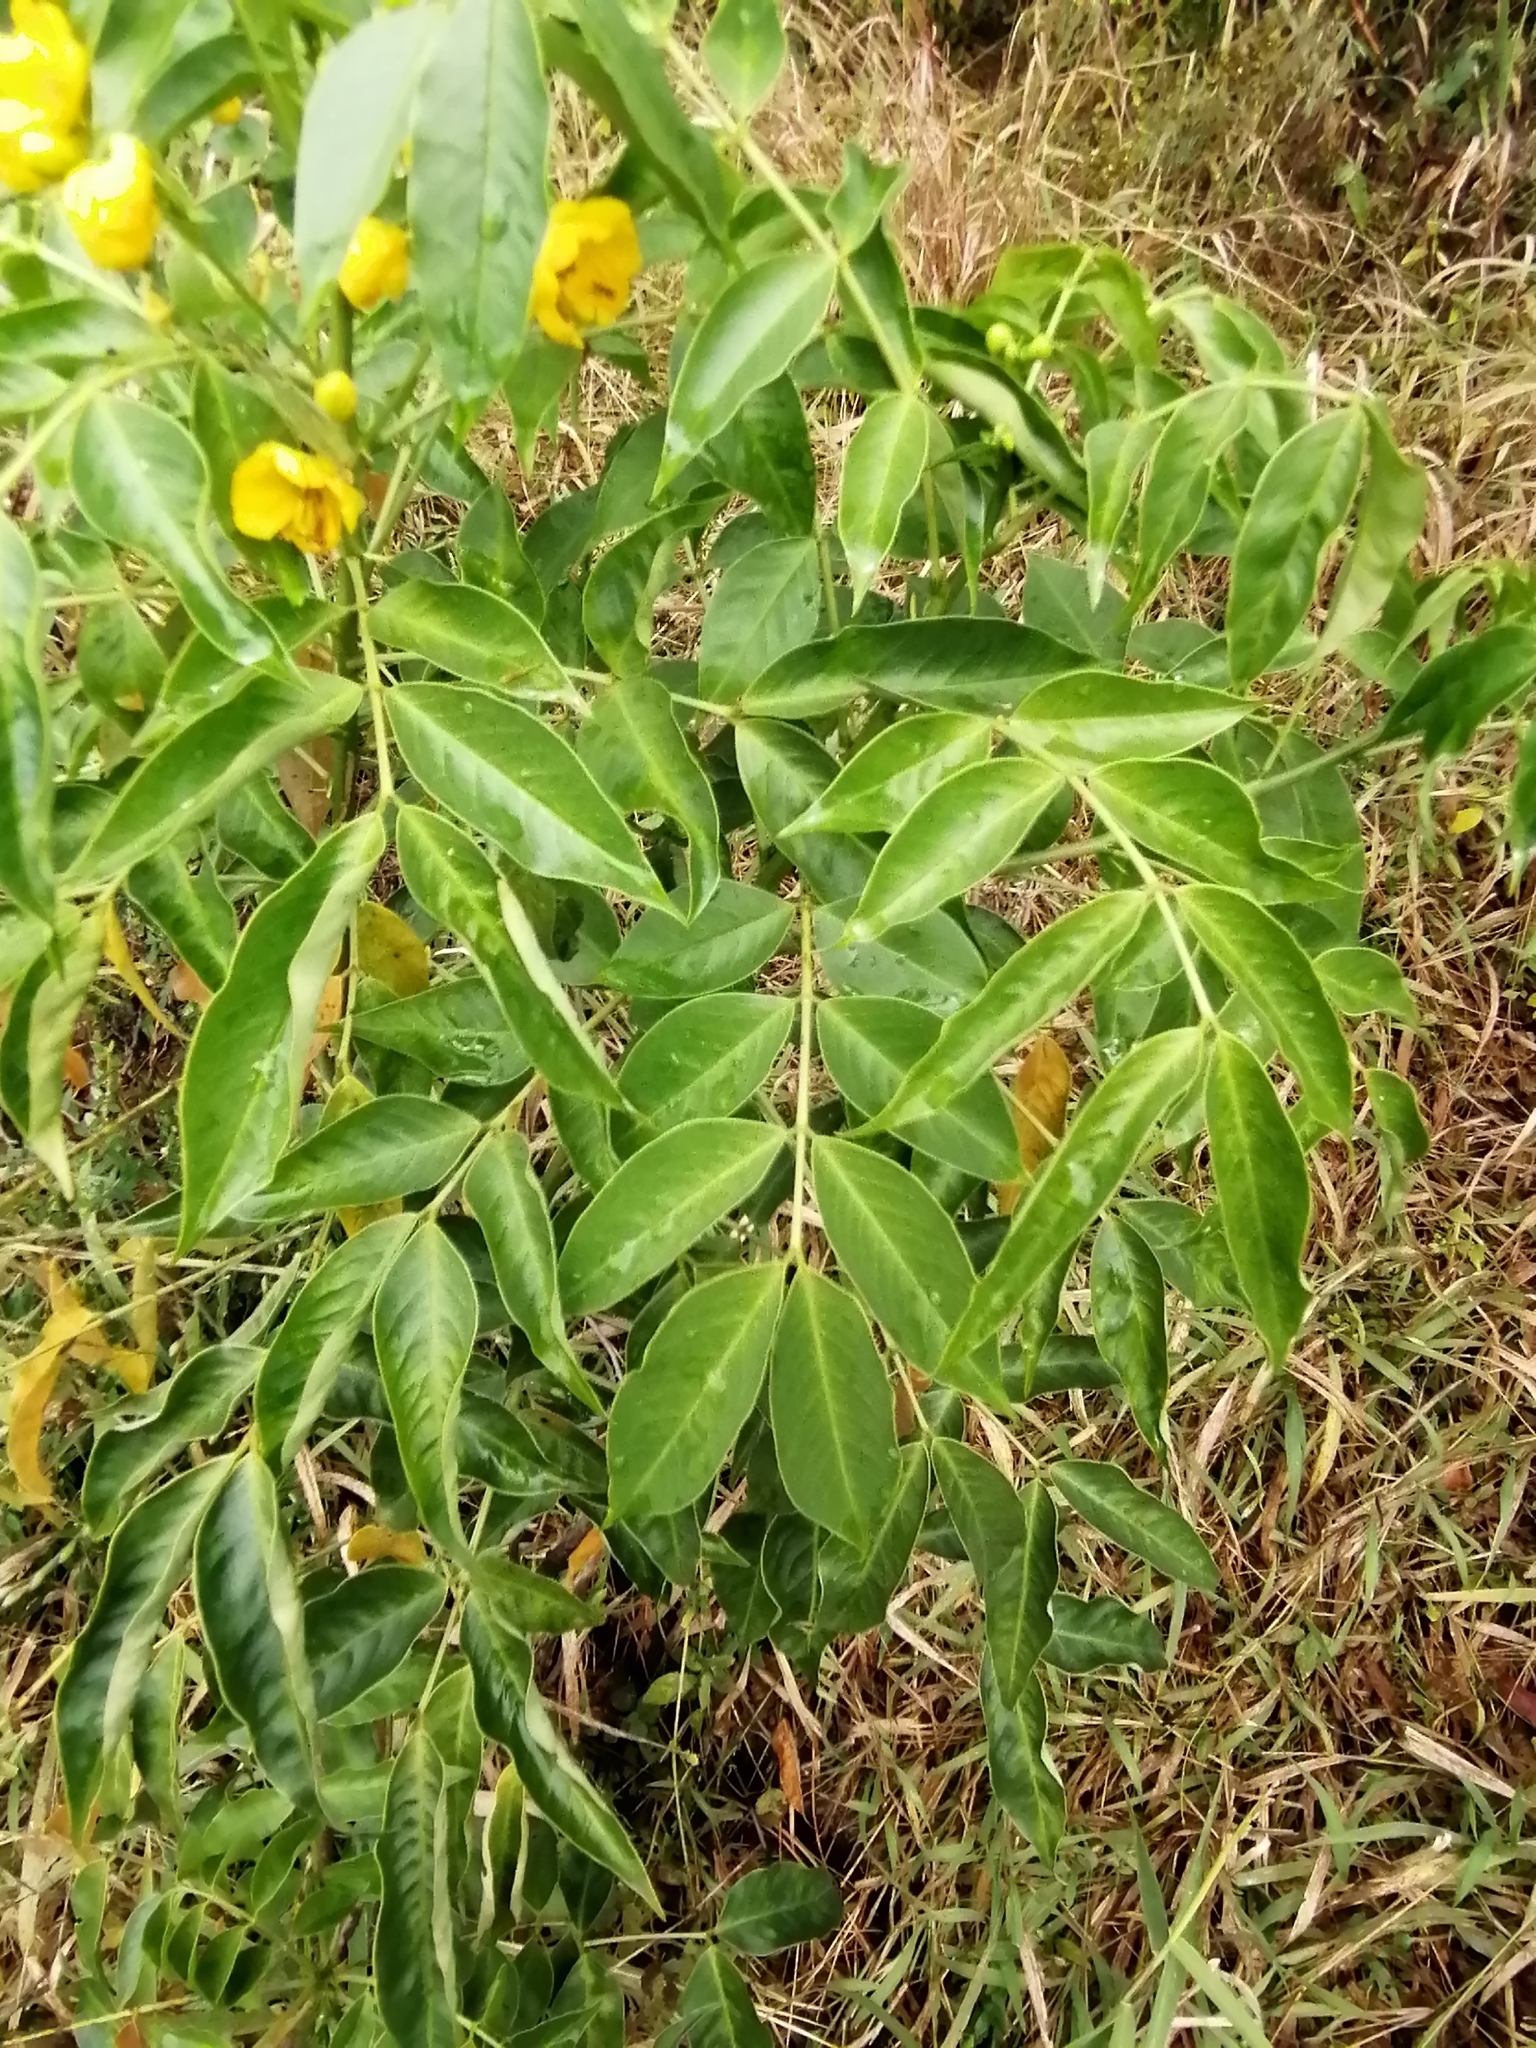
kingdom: Plantae
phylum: Tracheophyta
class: Magnoliopsida
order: Fabales
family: Fabaceae
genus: Senna
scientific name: Senna septemtrionalis
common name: Arsenic bush
